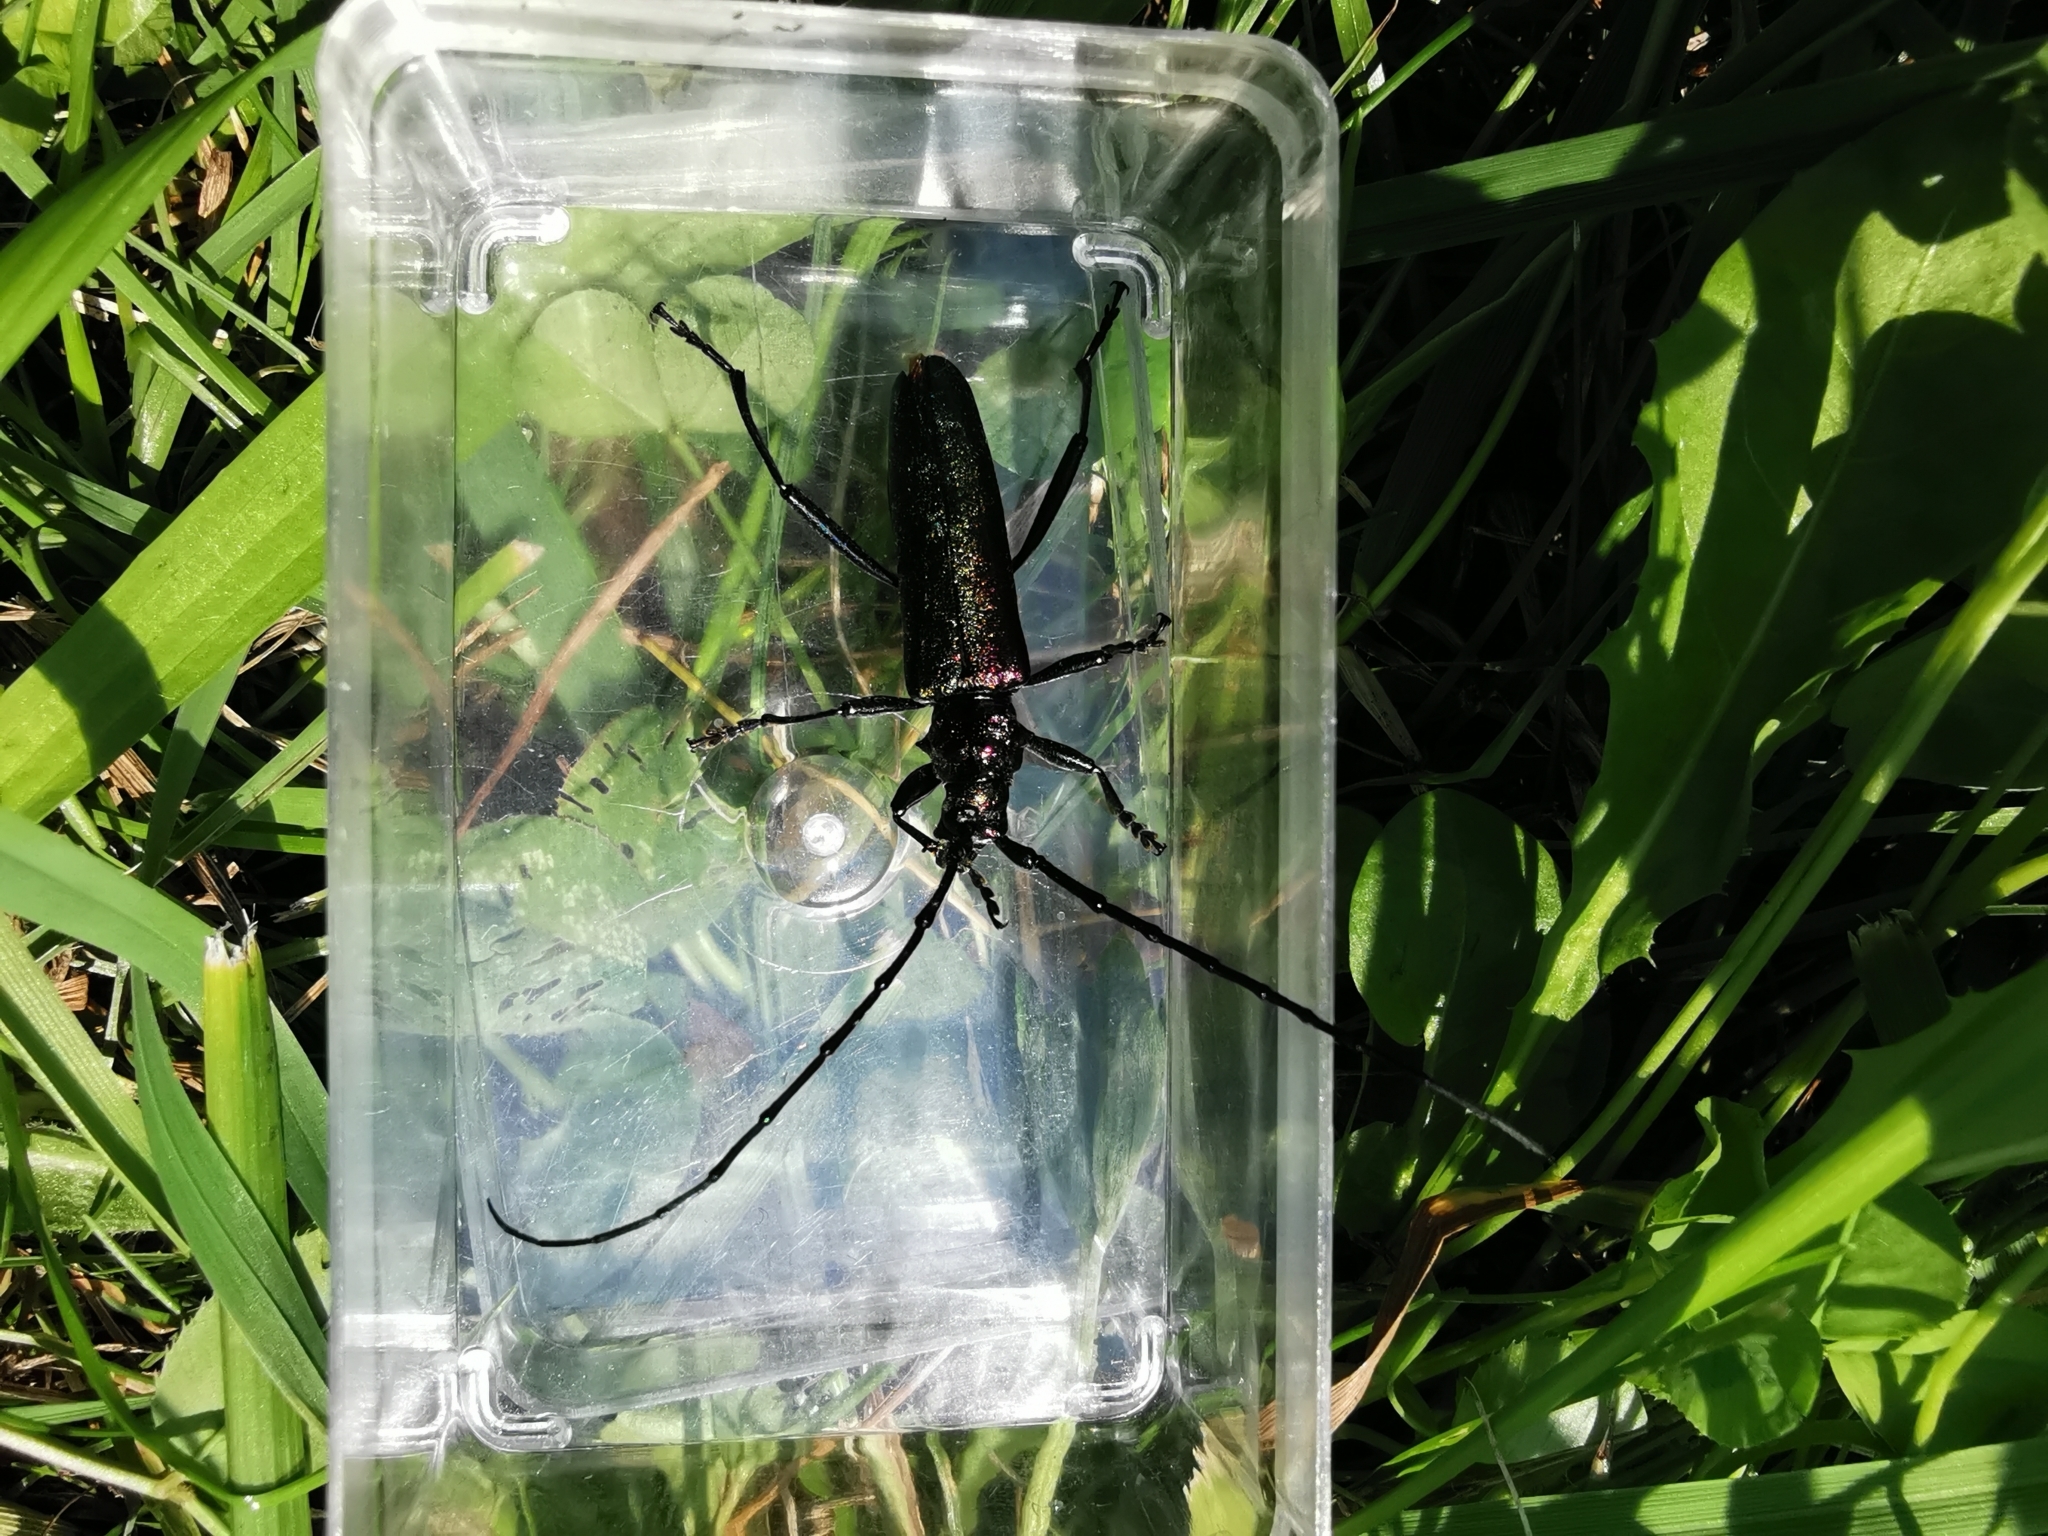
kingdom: Animalia
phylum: Arthropoda
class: Insecta
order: Coleoptera
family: Cerambycidae
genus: Aromia
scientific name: Aromia moschata
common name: Musk beetle
